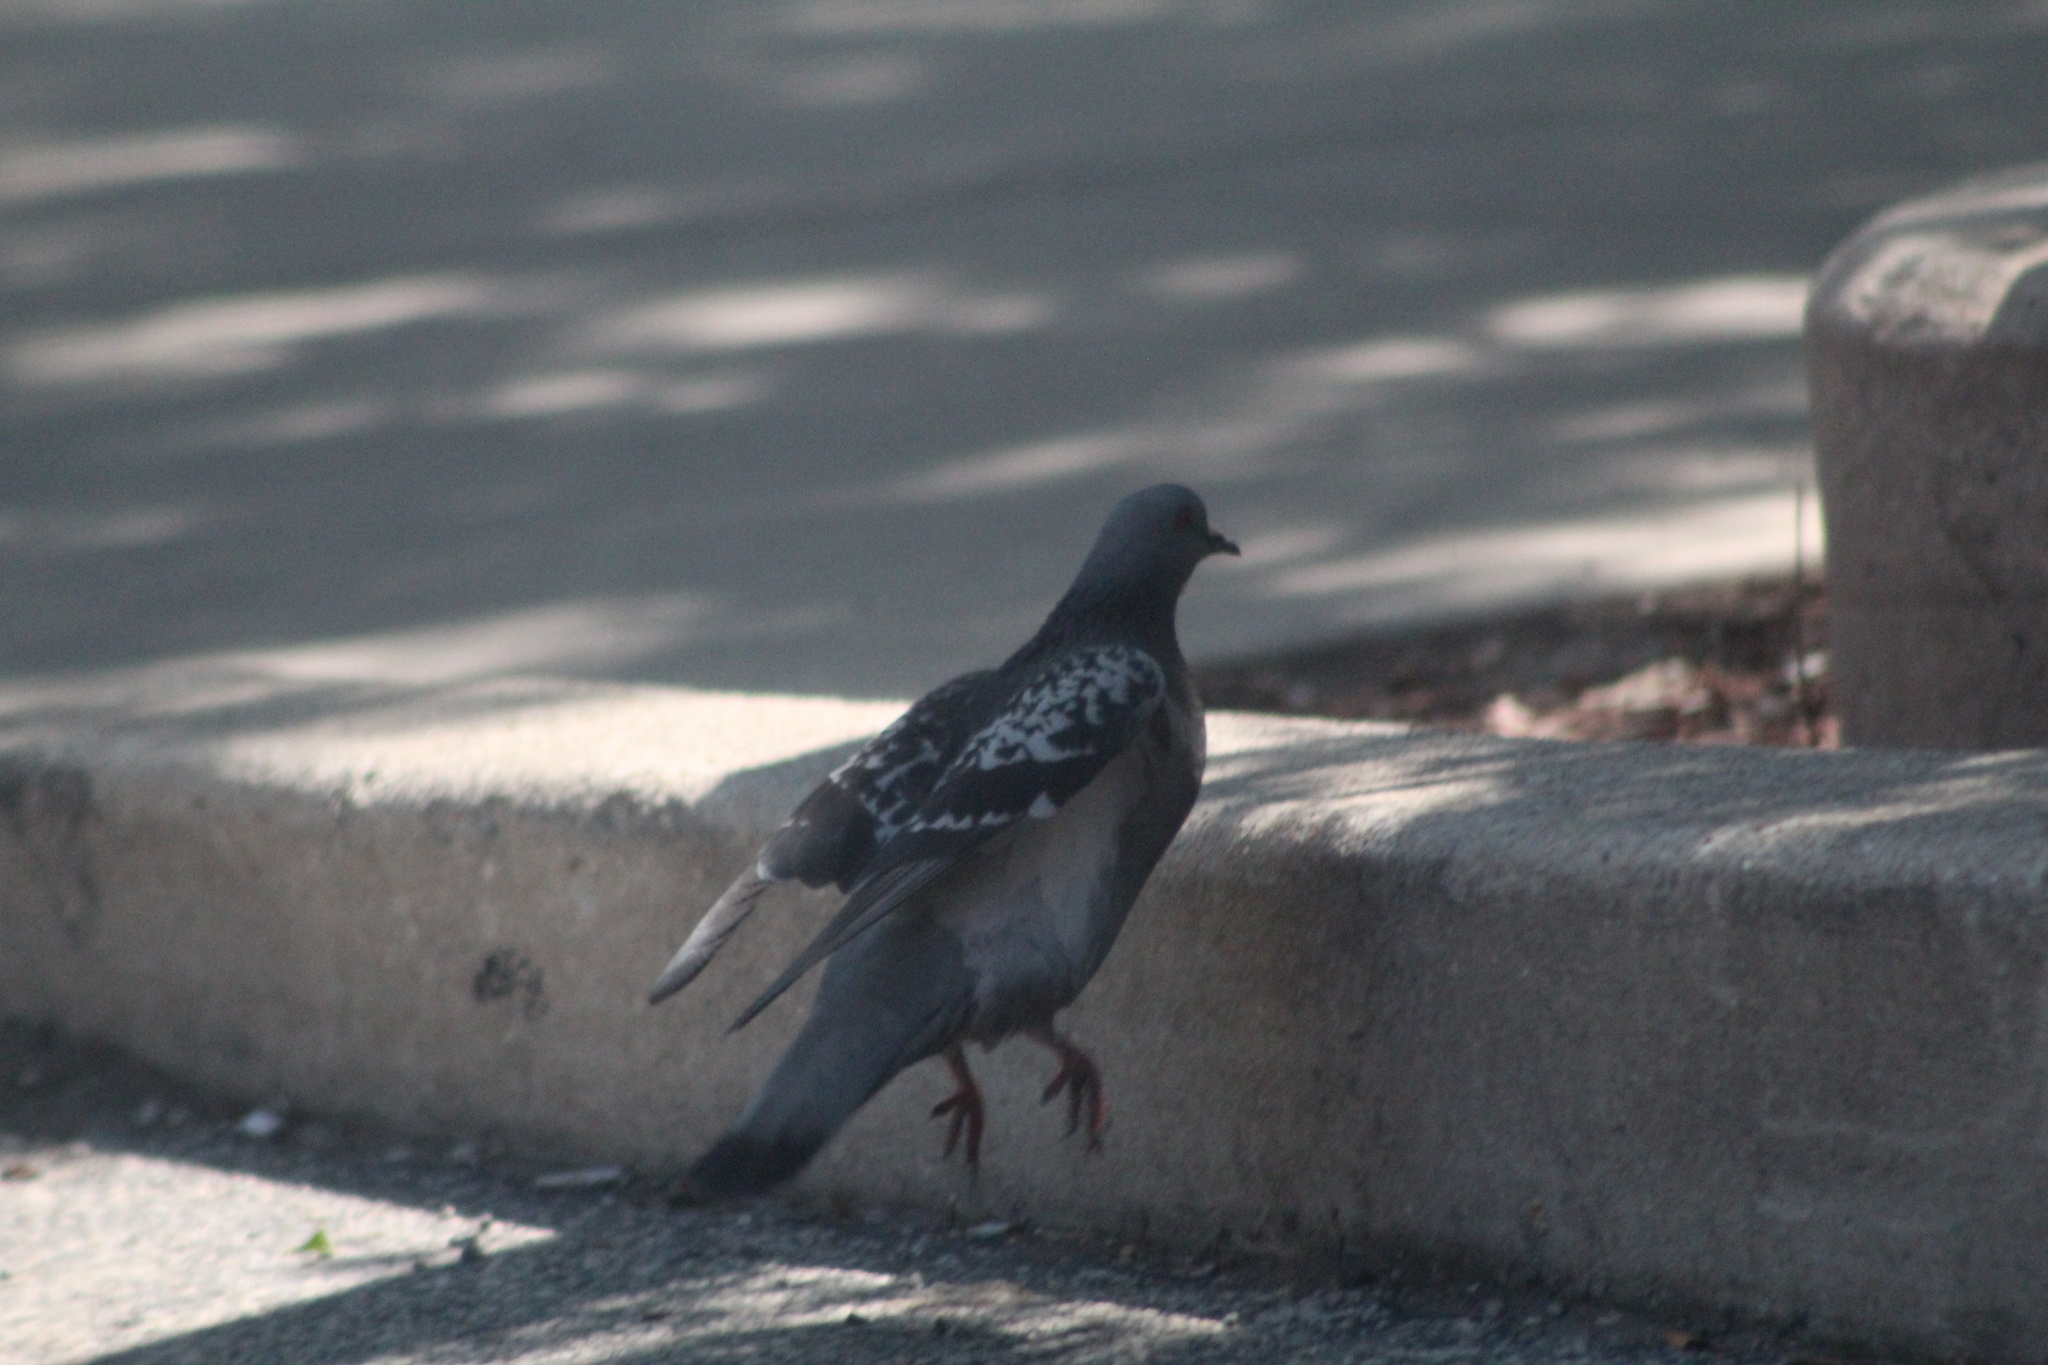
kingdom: Animalia
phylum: Chordata
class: Aves
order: Columbiformes
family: Columbidae
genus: Columba
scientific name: Columba livia
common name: Rock pigeon
